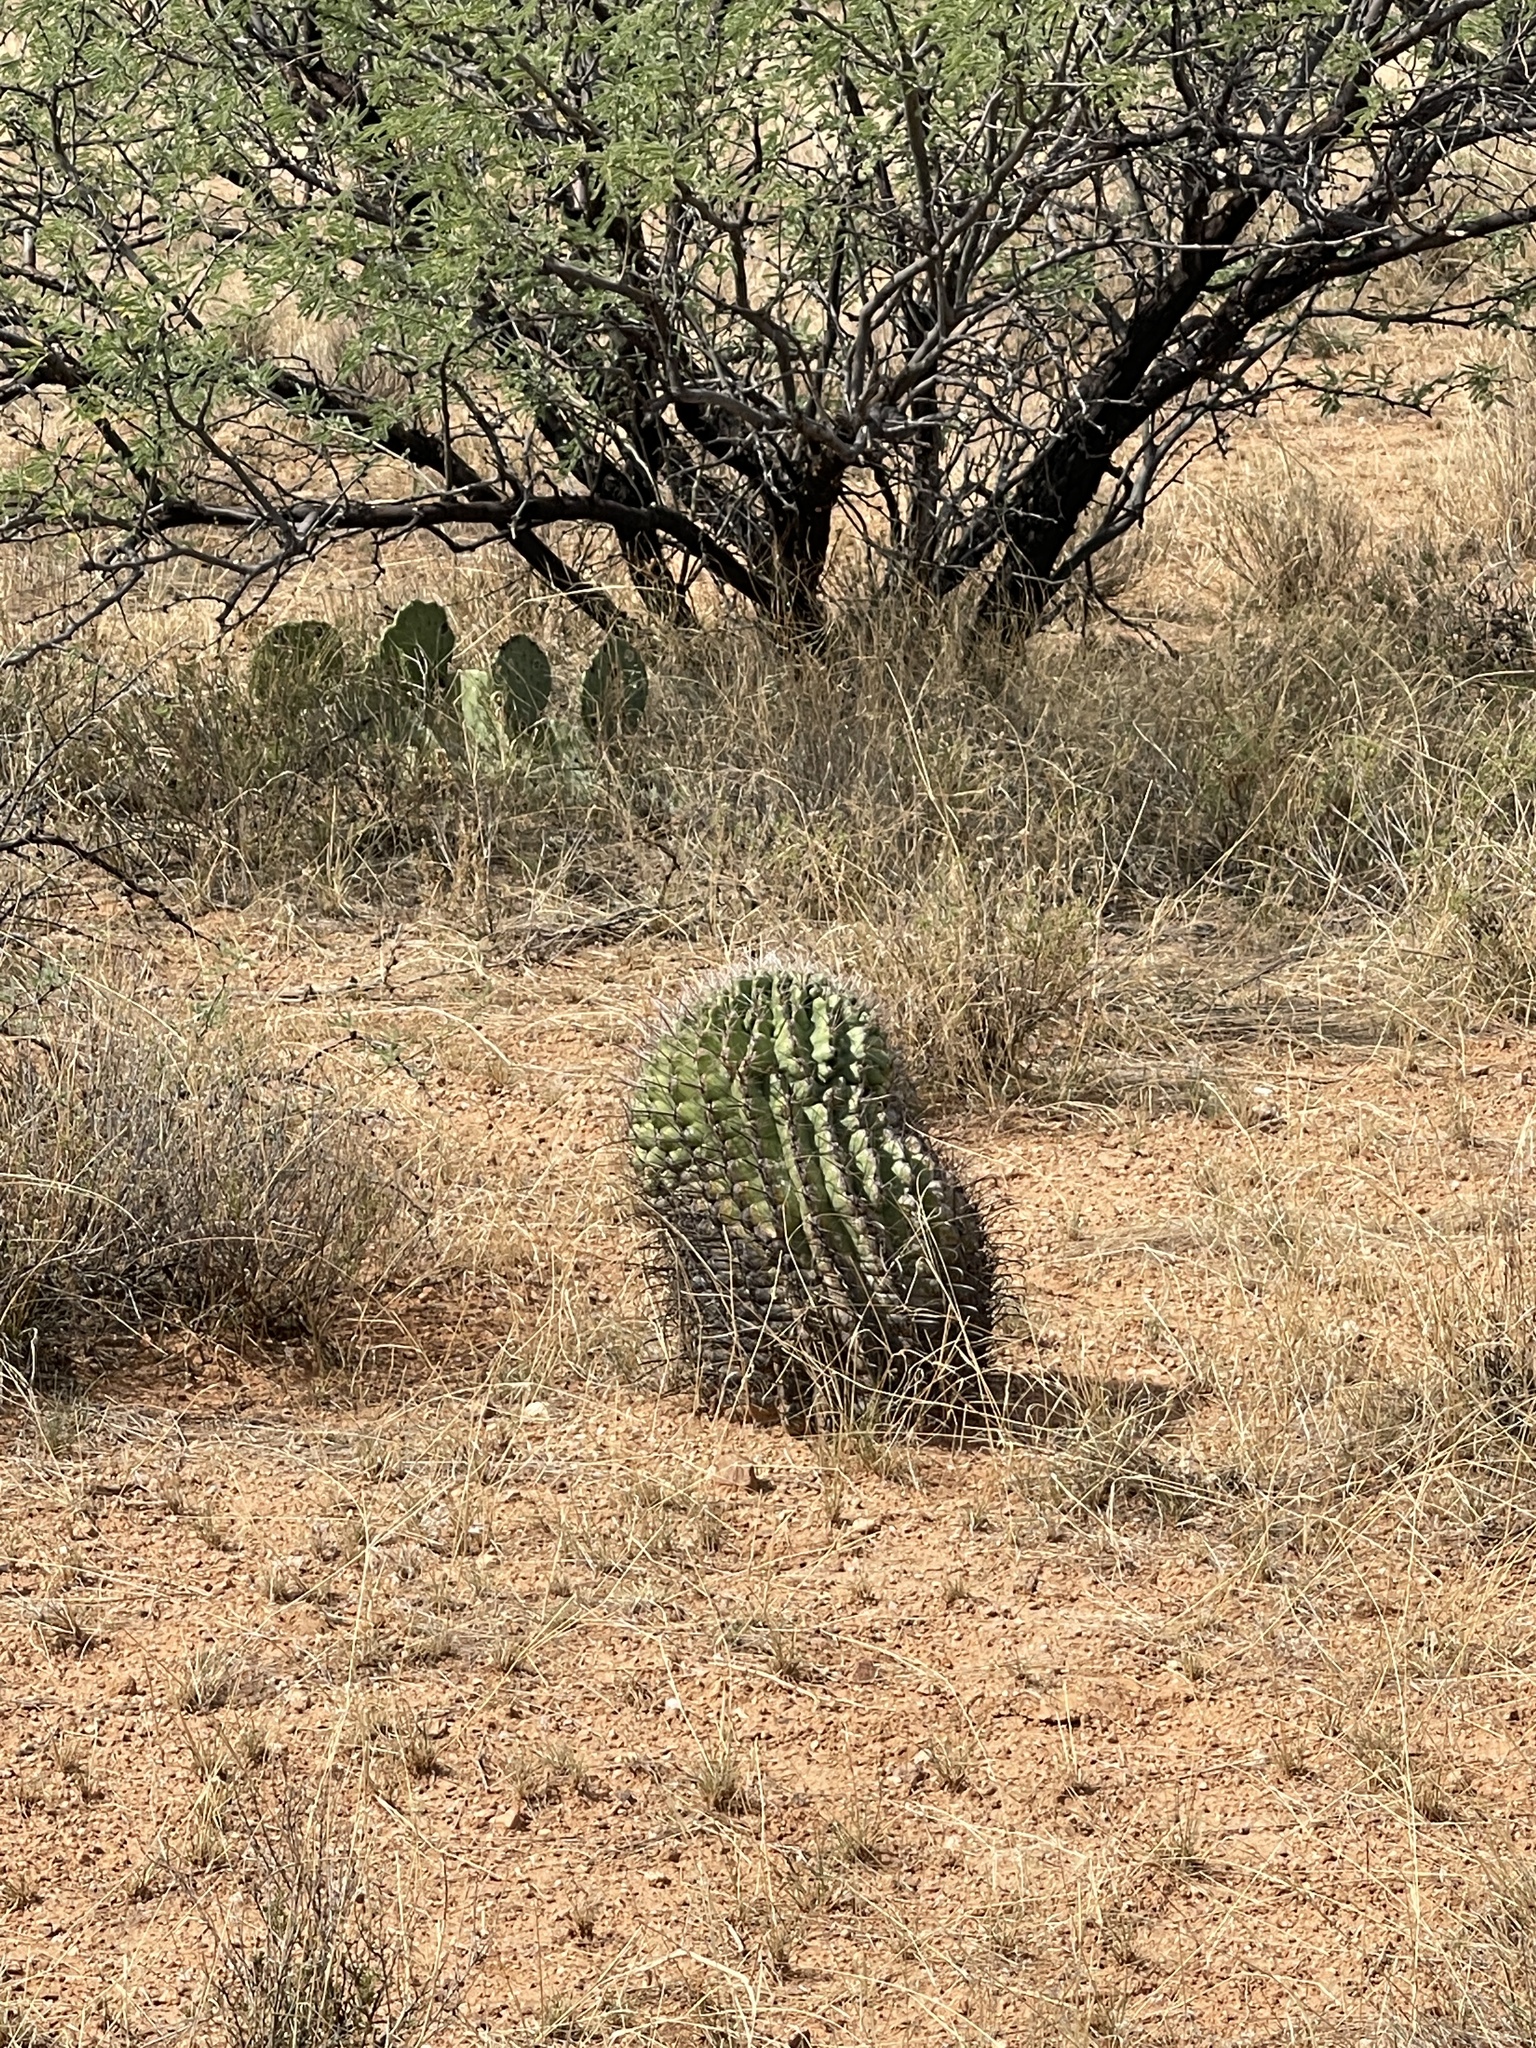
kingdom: Plantae
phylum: Tracheophyta
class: Magnoliopsida
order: Caryophyllales
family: Cactaceae
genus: Ferocactus
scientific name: Ferocactus wislizeni
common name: Candy barrel cactus
